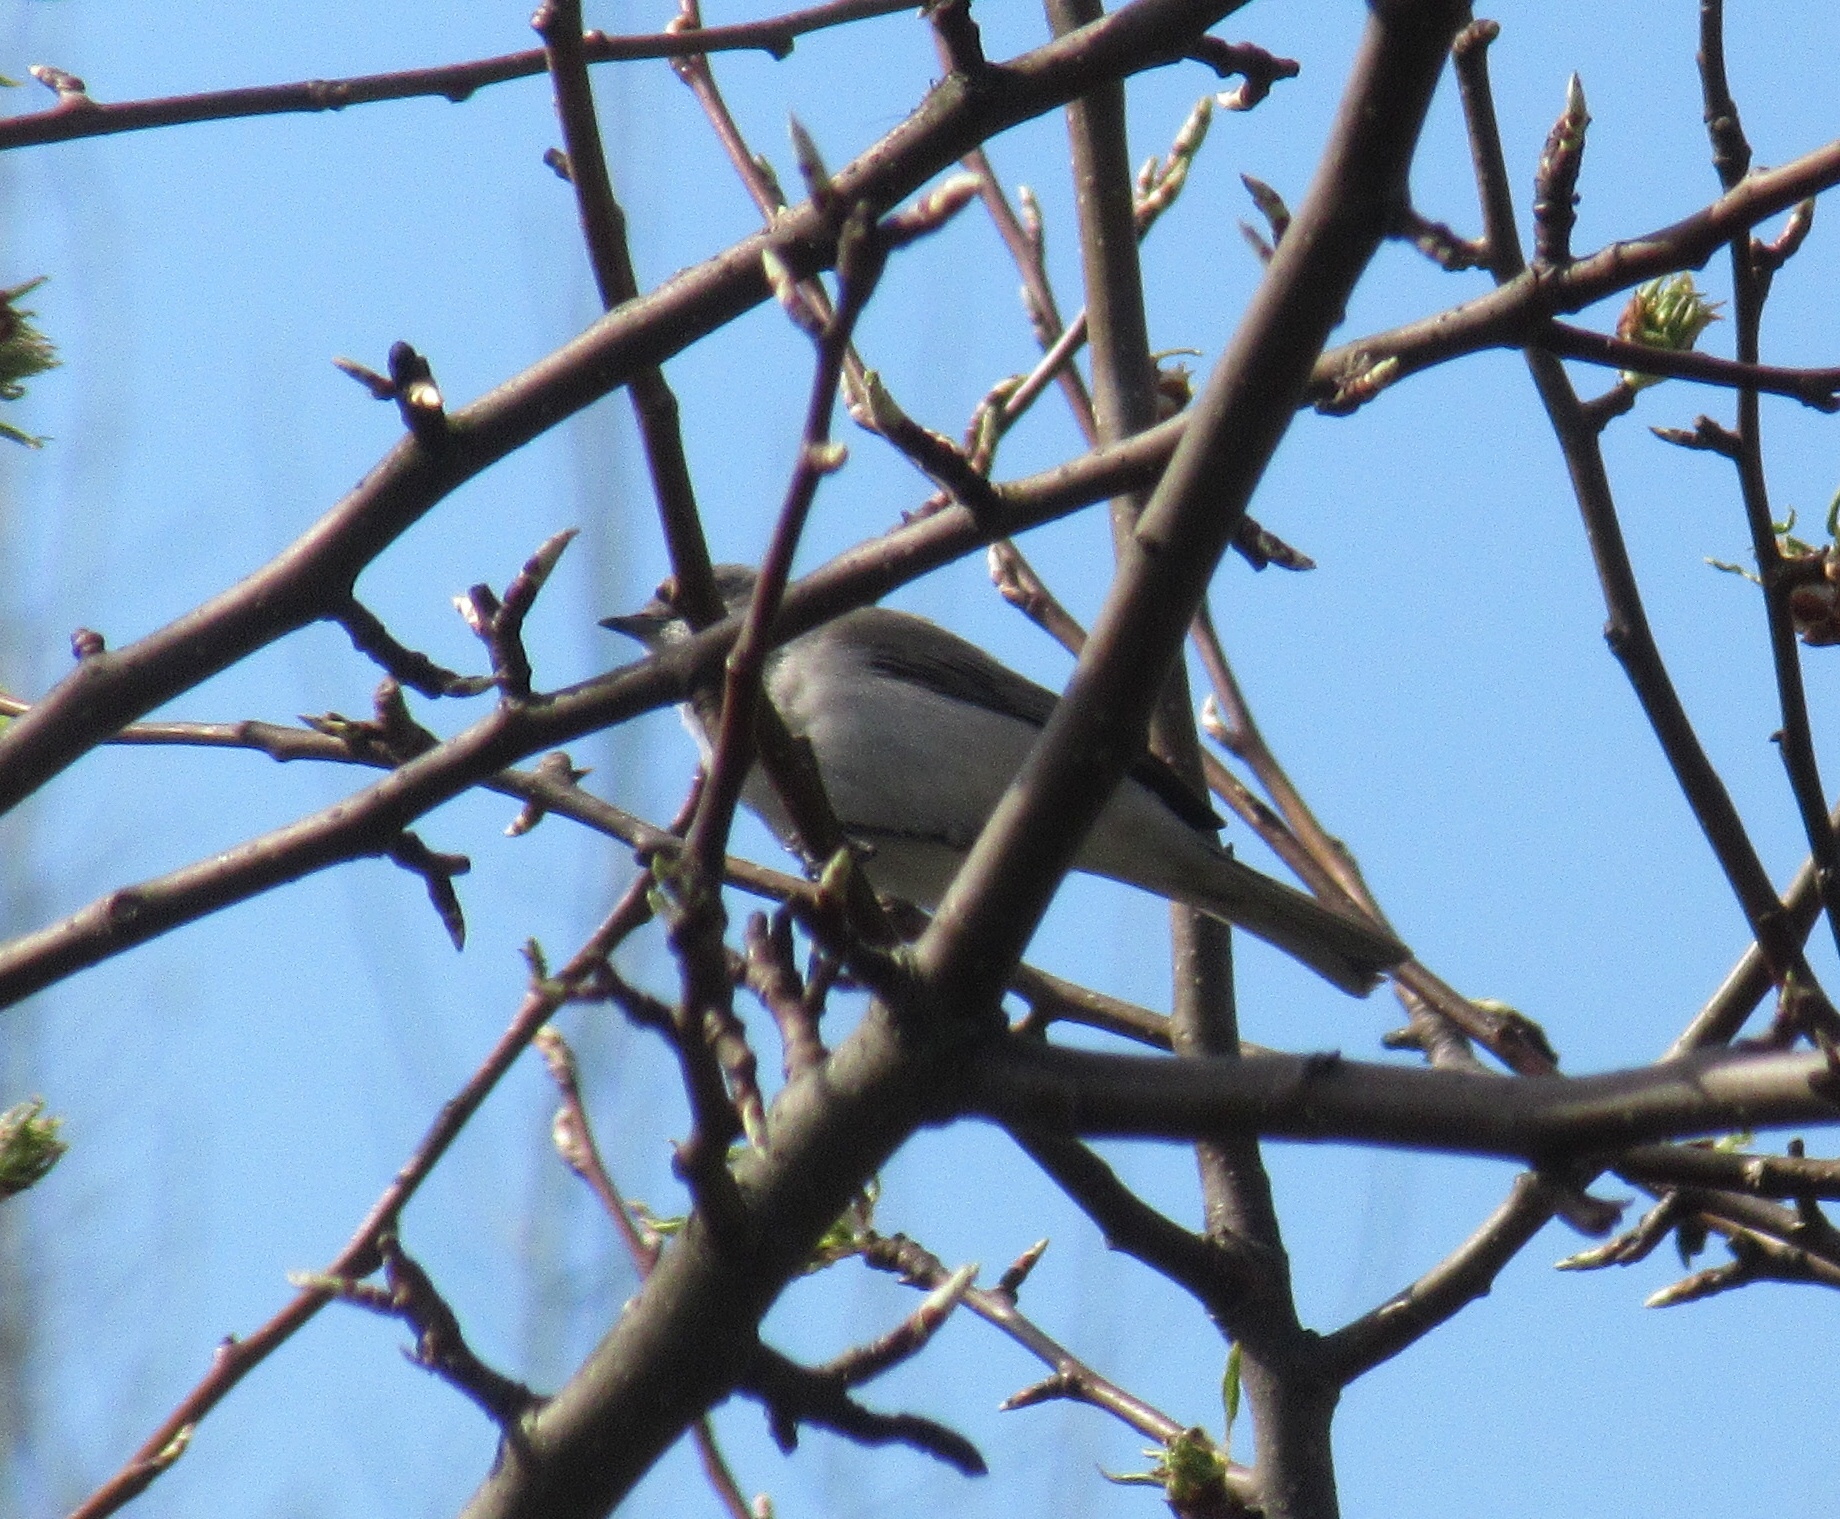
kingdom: Animalia
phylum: Chordata
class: Aves
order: Passeriformes
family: Sylviidae
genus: Sylvia
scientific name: Sylvia curruca
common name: Lesser whitethroat
